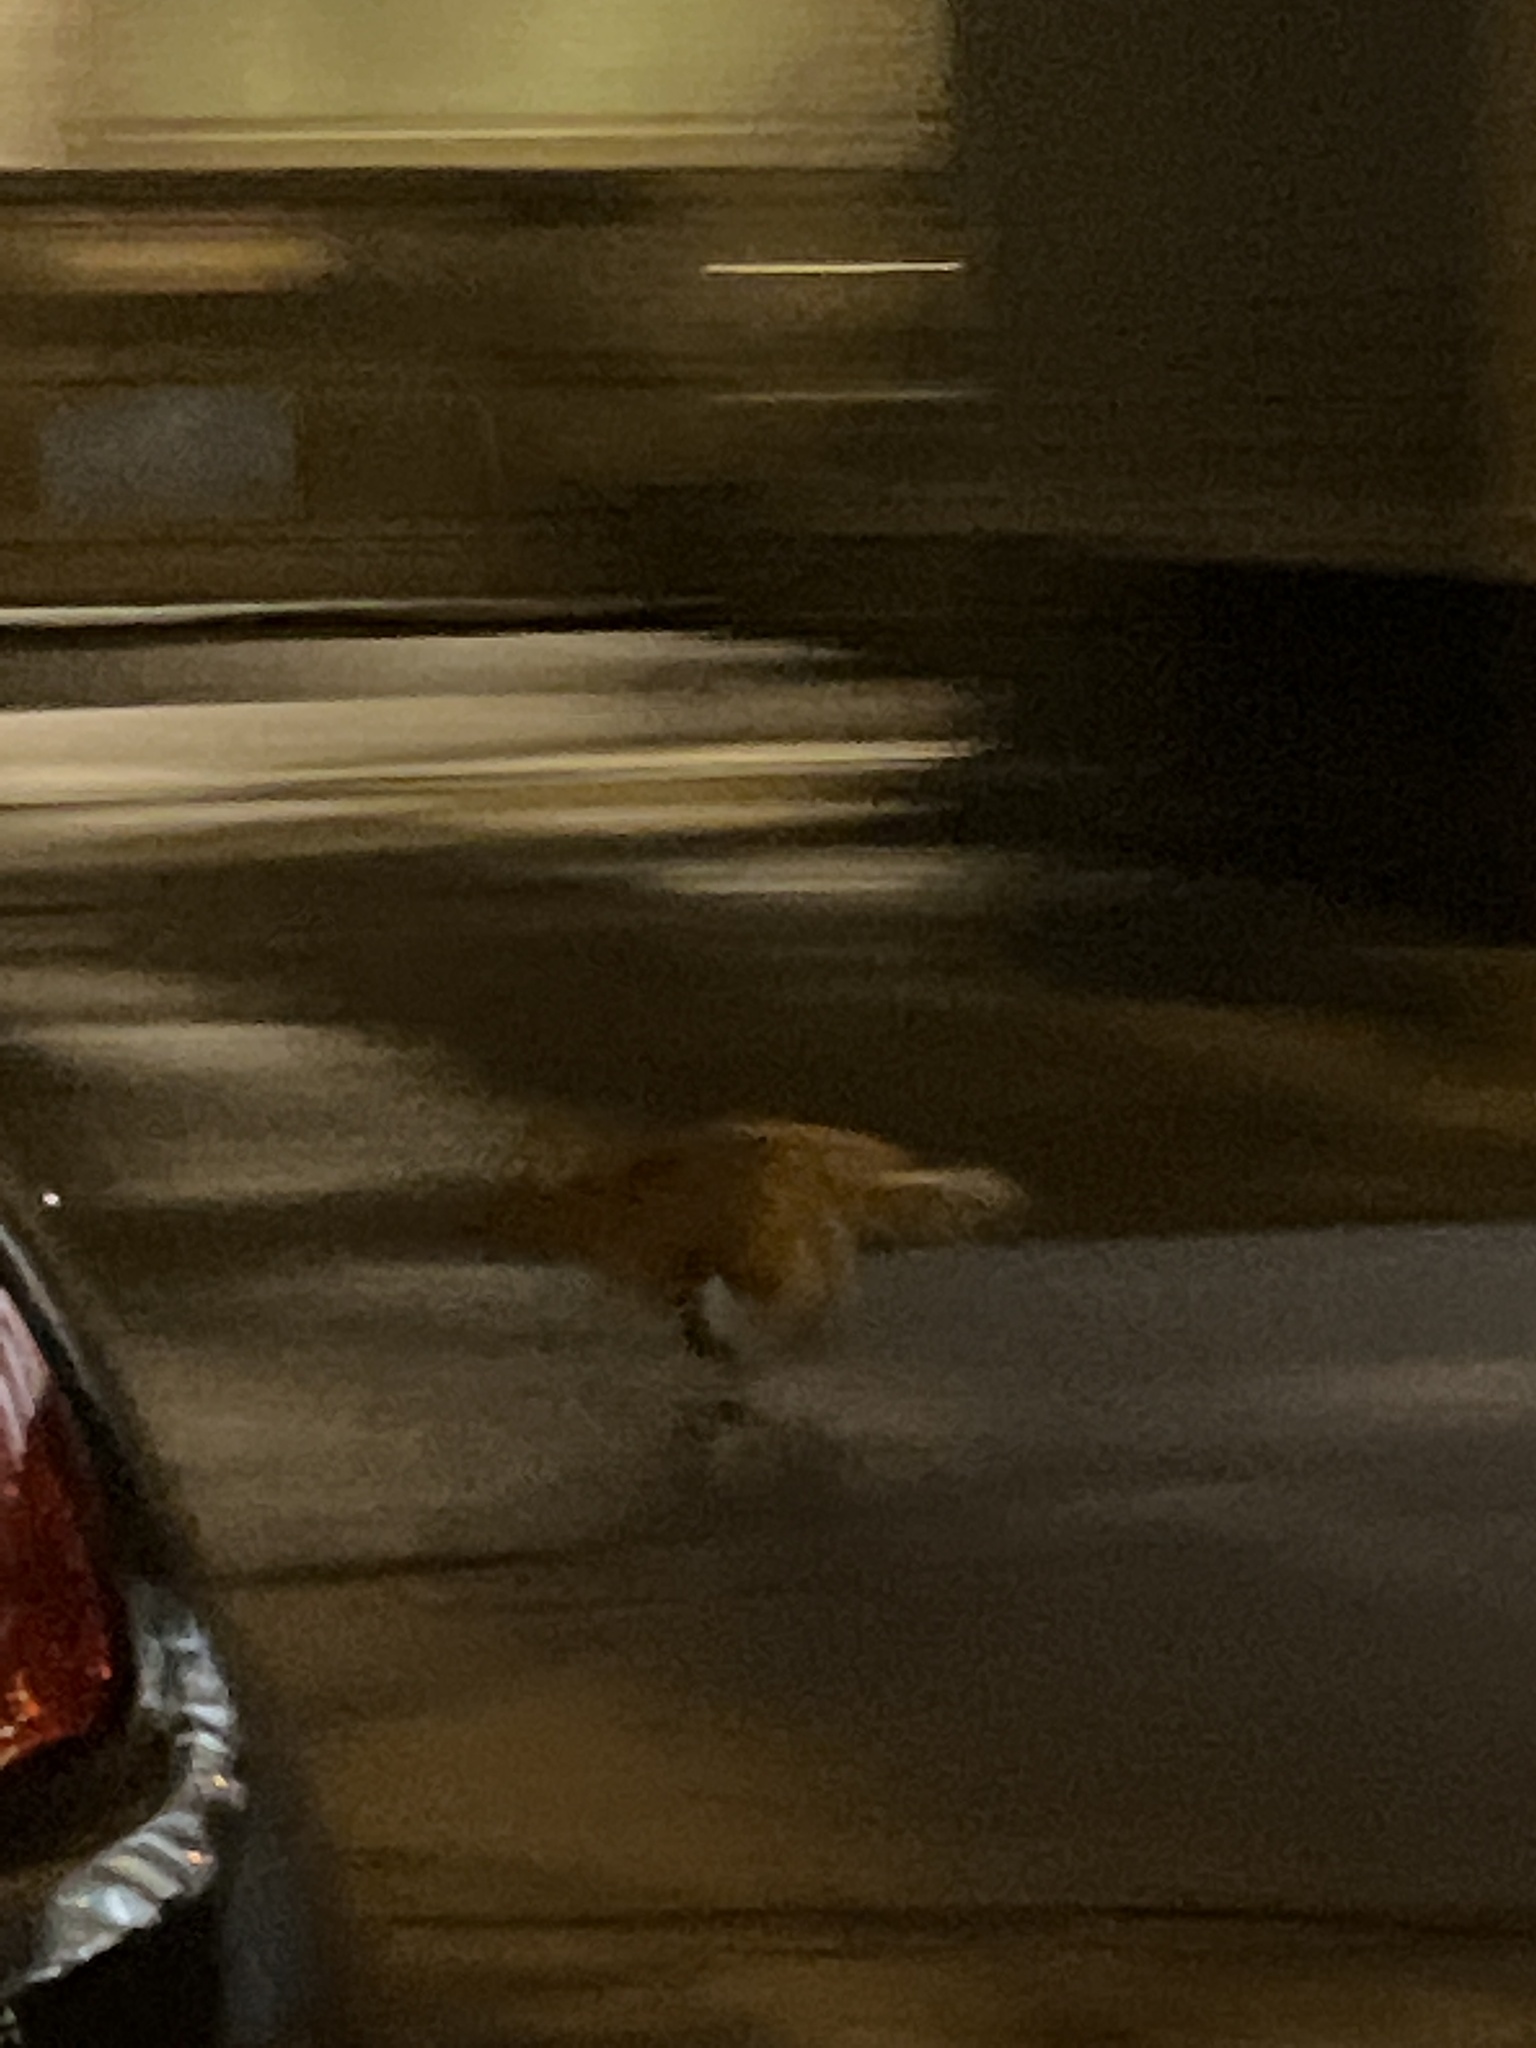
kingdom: Animalia
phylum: Chordata
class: Mammalia
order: Carnivora
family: Felidae
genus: Felis
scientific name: Felis catus
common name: Domestic cat
